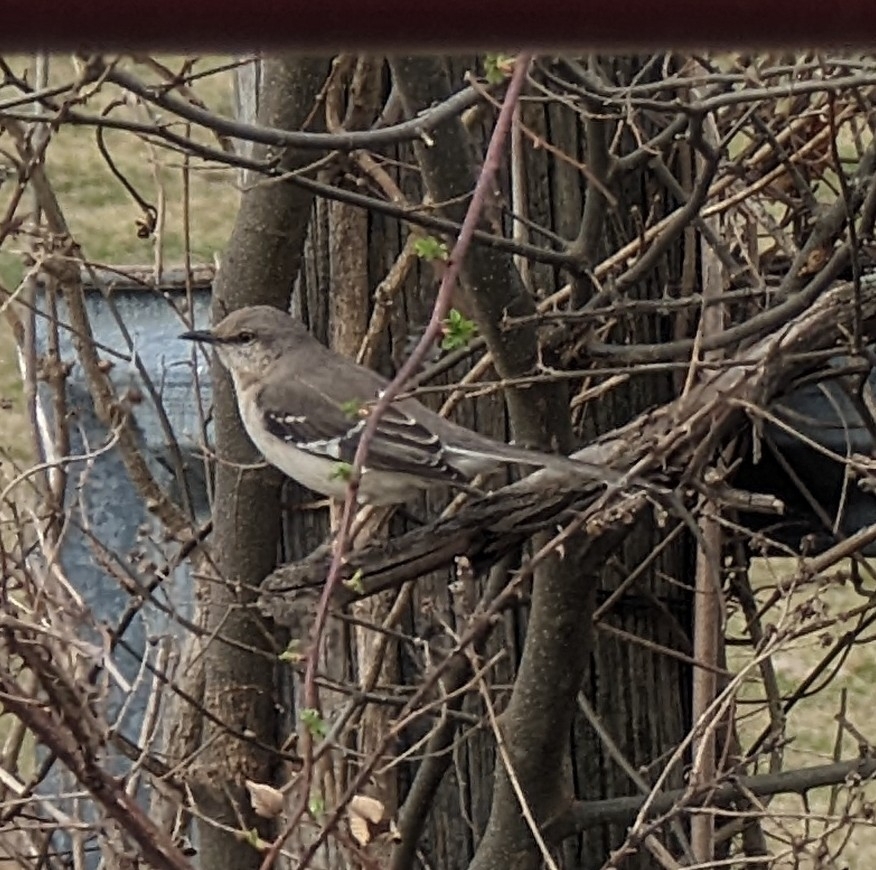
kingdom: Animalia
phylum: Chordata
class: Aves
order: Passeriformes
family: Mimidae
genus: Mimus
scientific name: Mimus polyglottos
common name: Northern mockingbird
